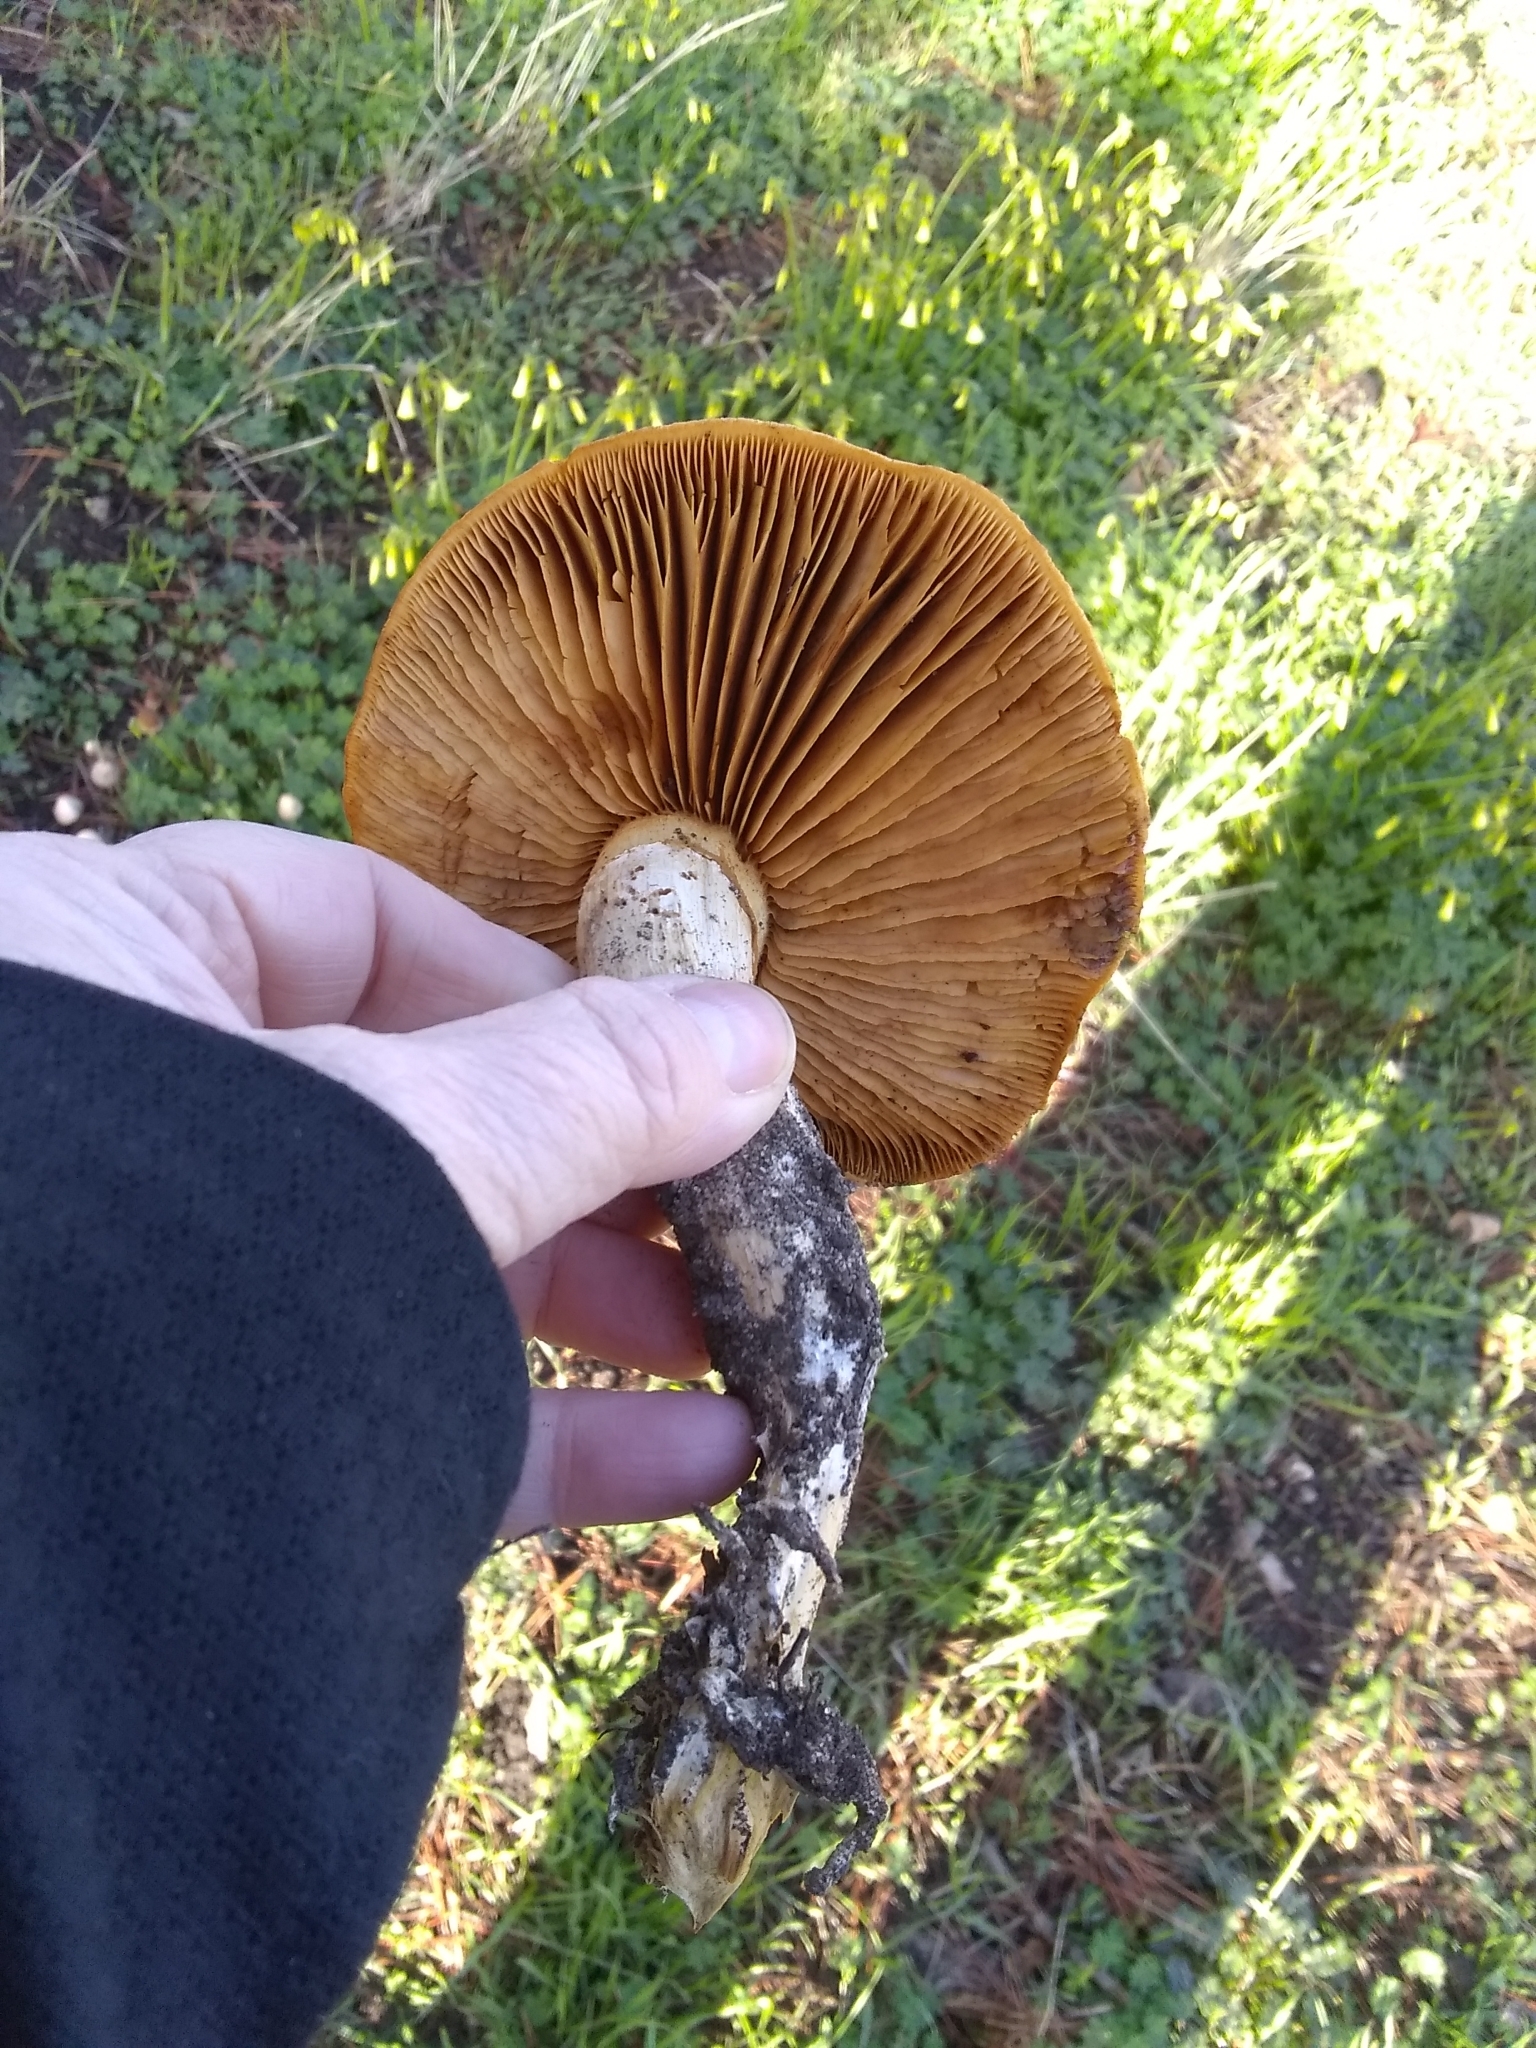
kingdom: Fungi
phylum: Basidiomycota
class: Agaricomycetes
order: Agaricales
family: Hymenogastraceae
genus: Gymnopilus
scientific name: Gymnopilus ventricosus
